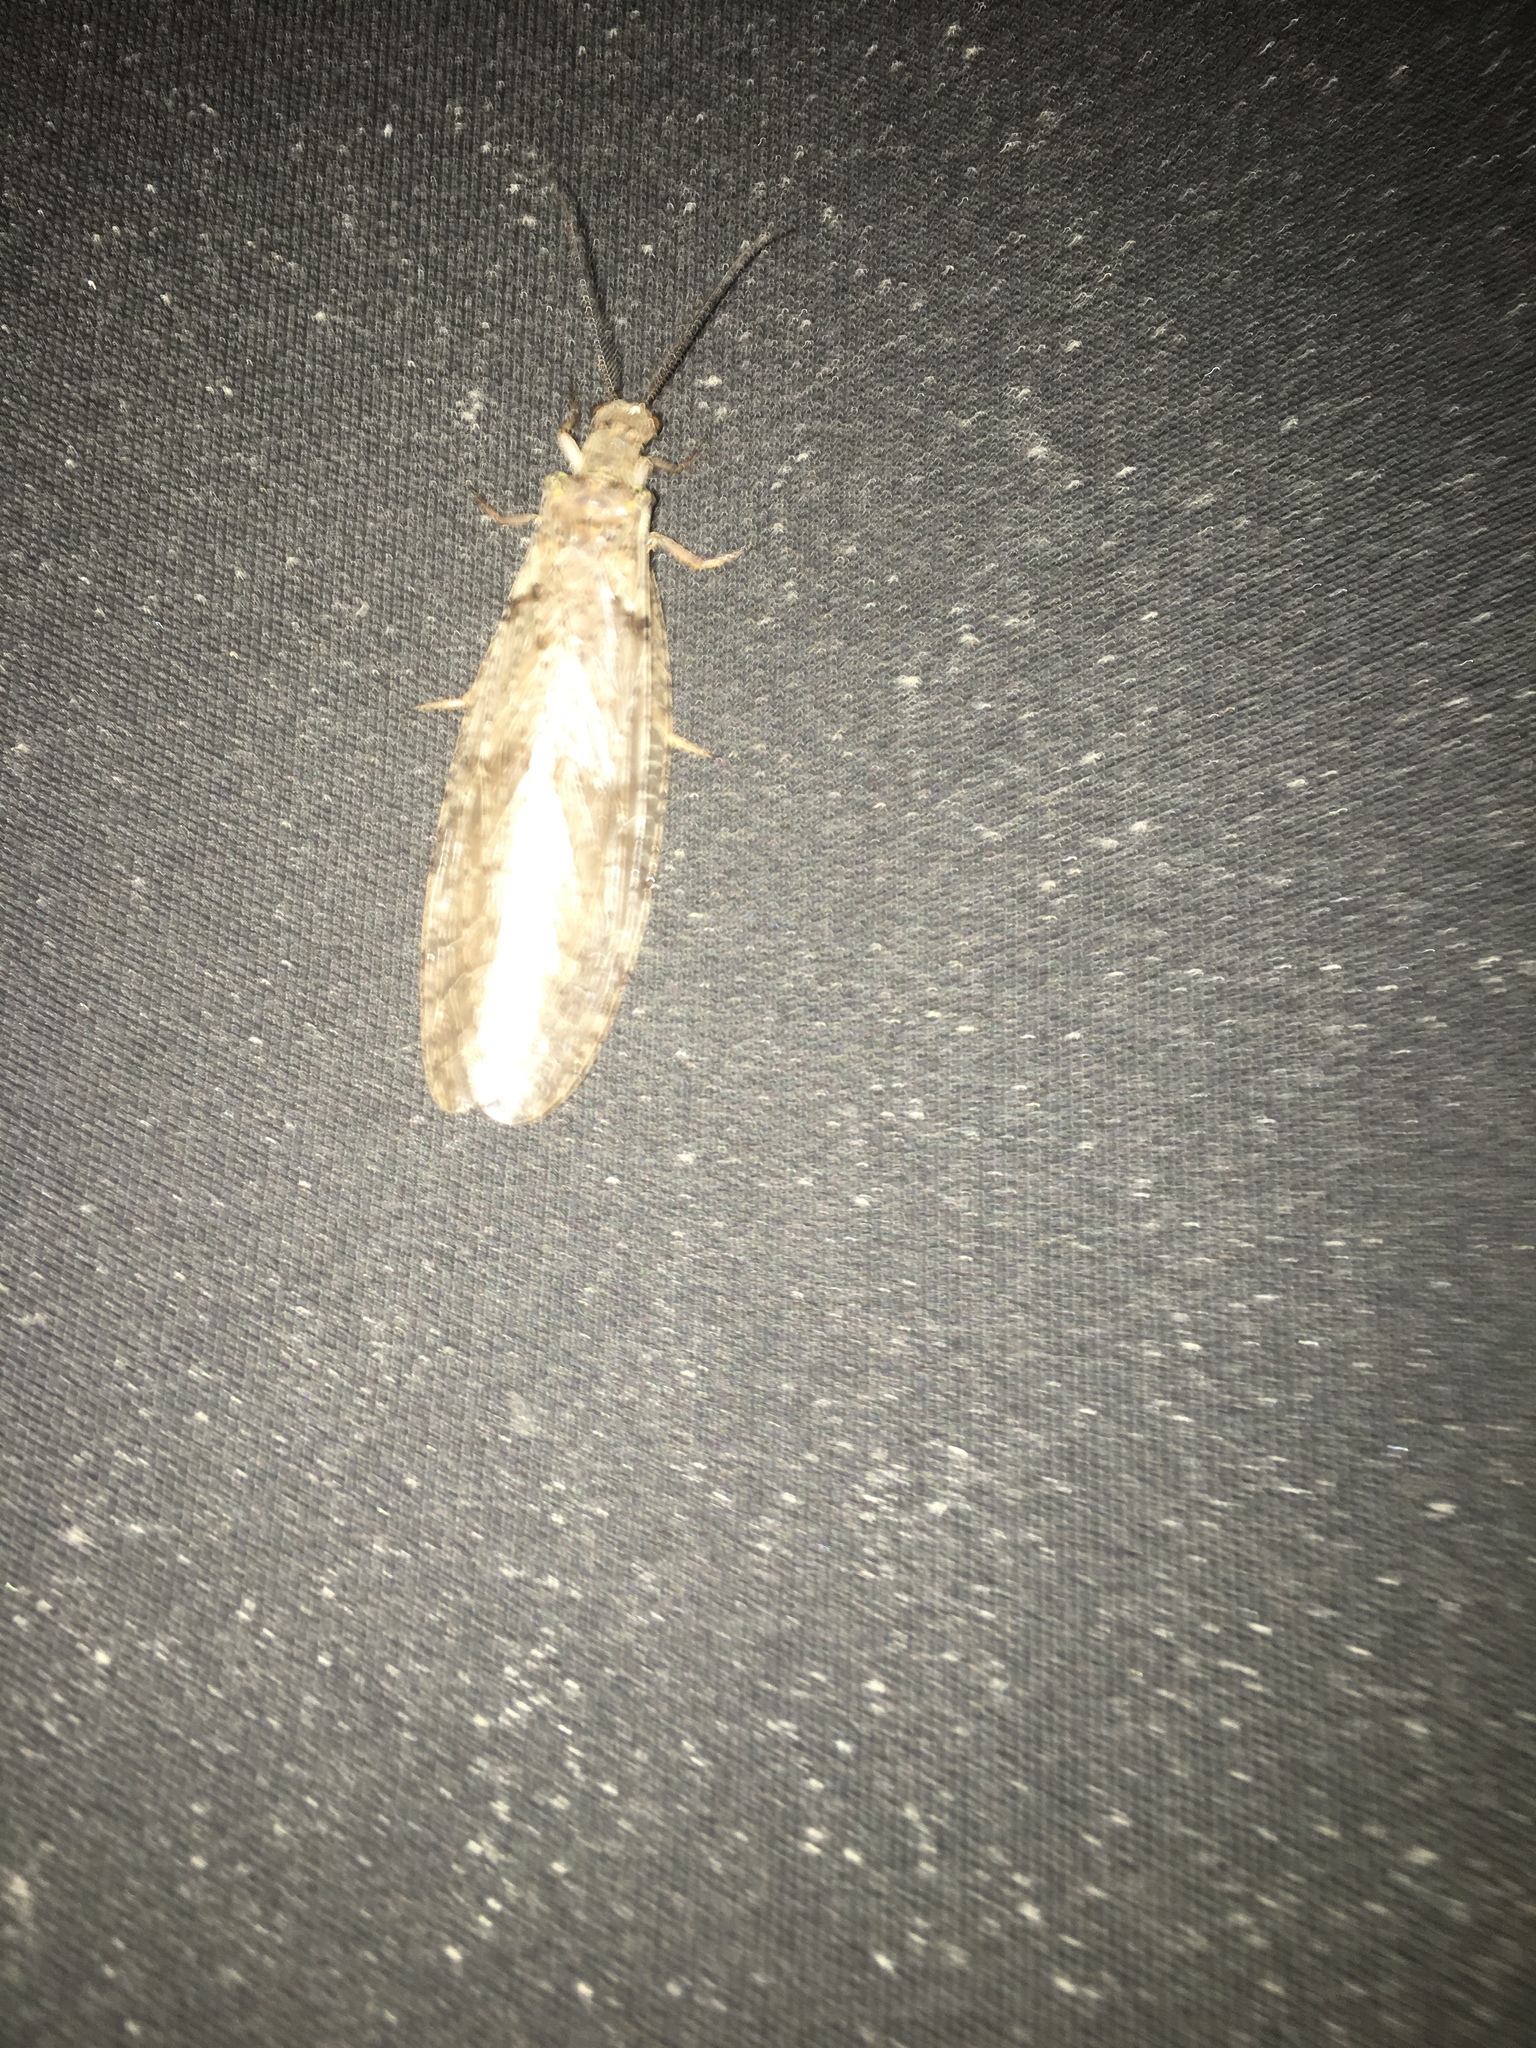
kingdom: Animalia
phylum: Arthropoda
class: Insecta
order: Megaloptera
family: Corydalidae
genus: Chauliodes
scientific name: Chauliodes pectinicornis
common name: Summer fishfly
